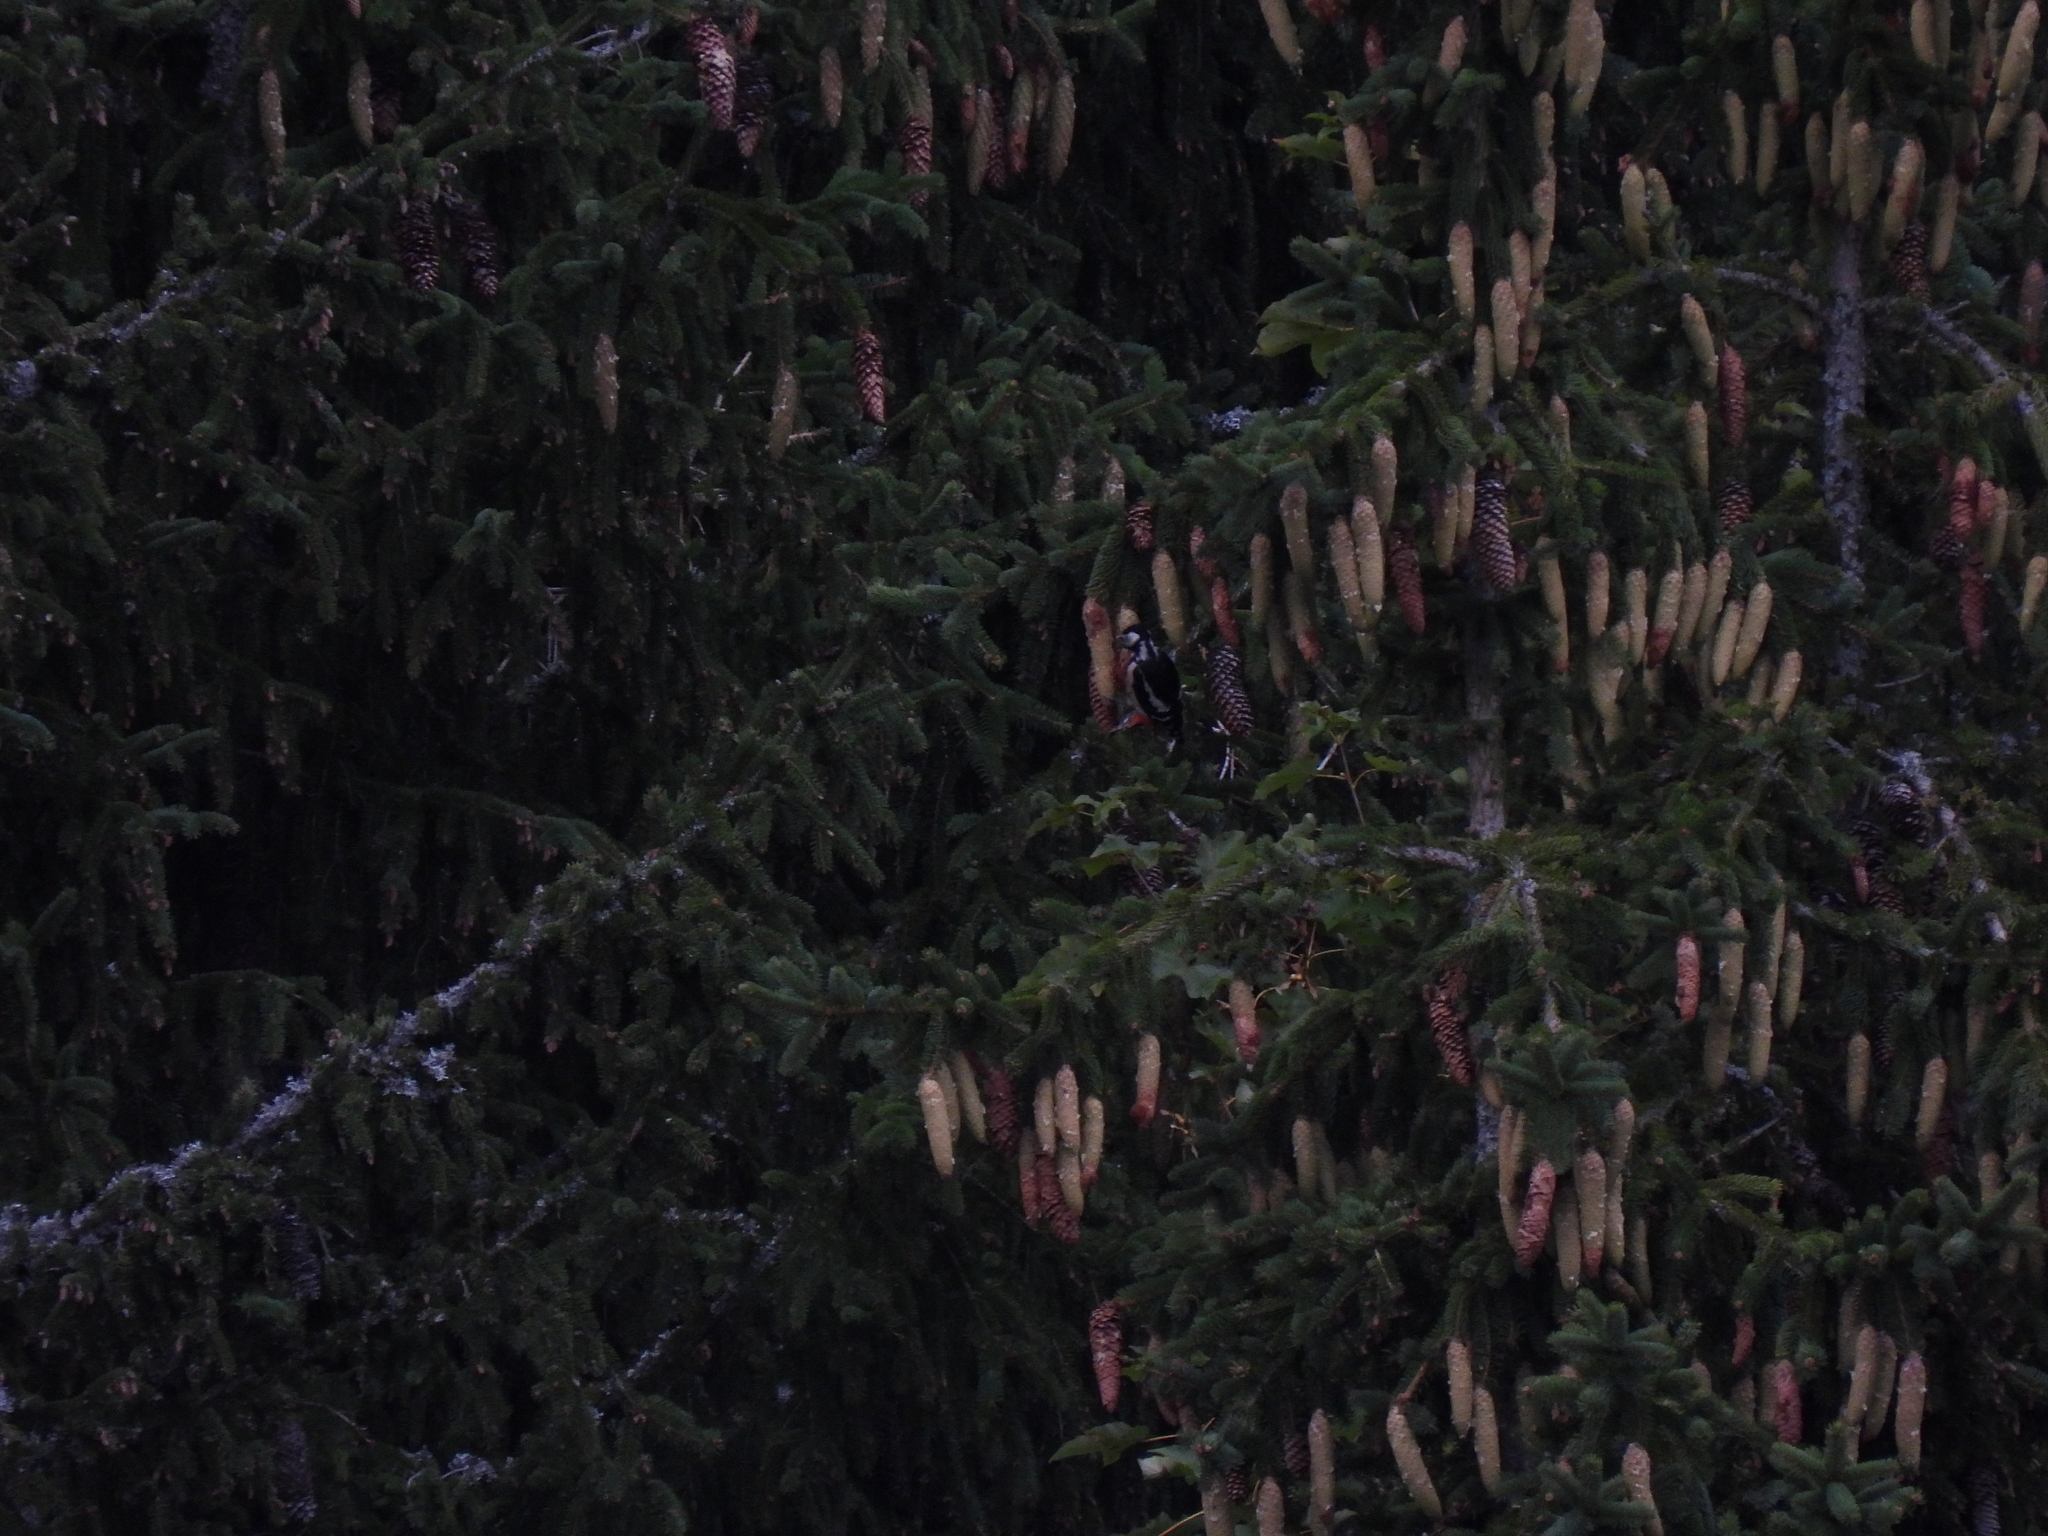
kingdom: Animalia
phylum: Chordata
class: Aves
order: Piciformes
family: Picidae
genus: Dendrocopos
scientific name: Dendrocopos major
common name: Great spotted woodpecker
